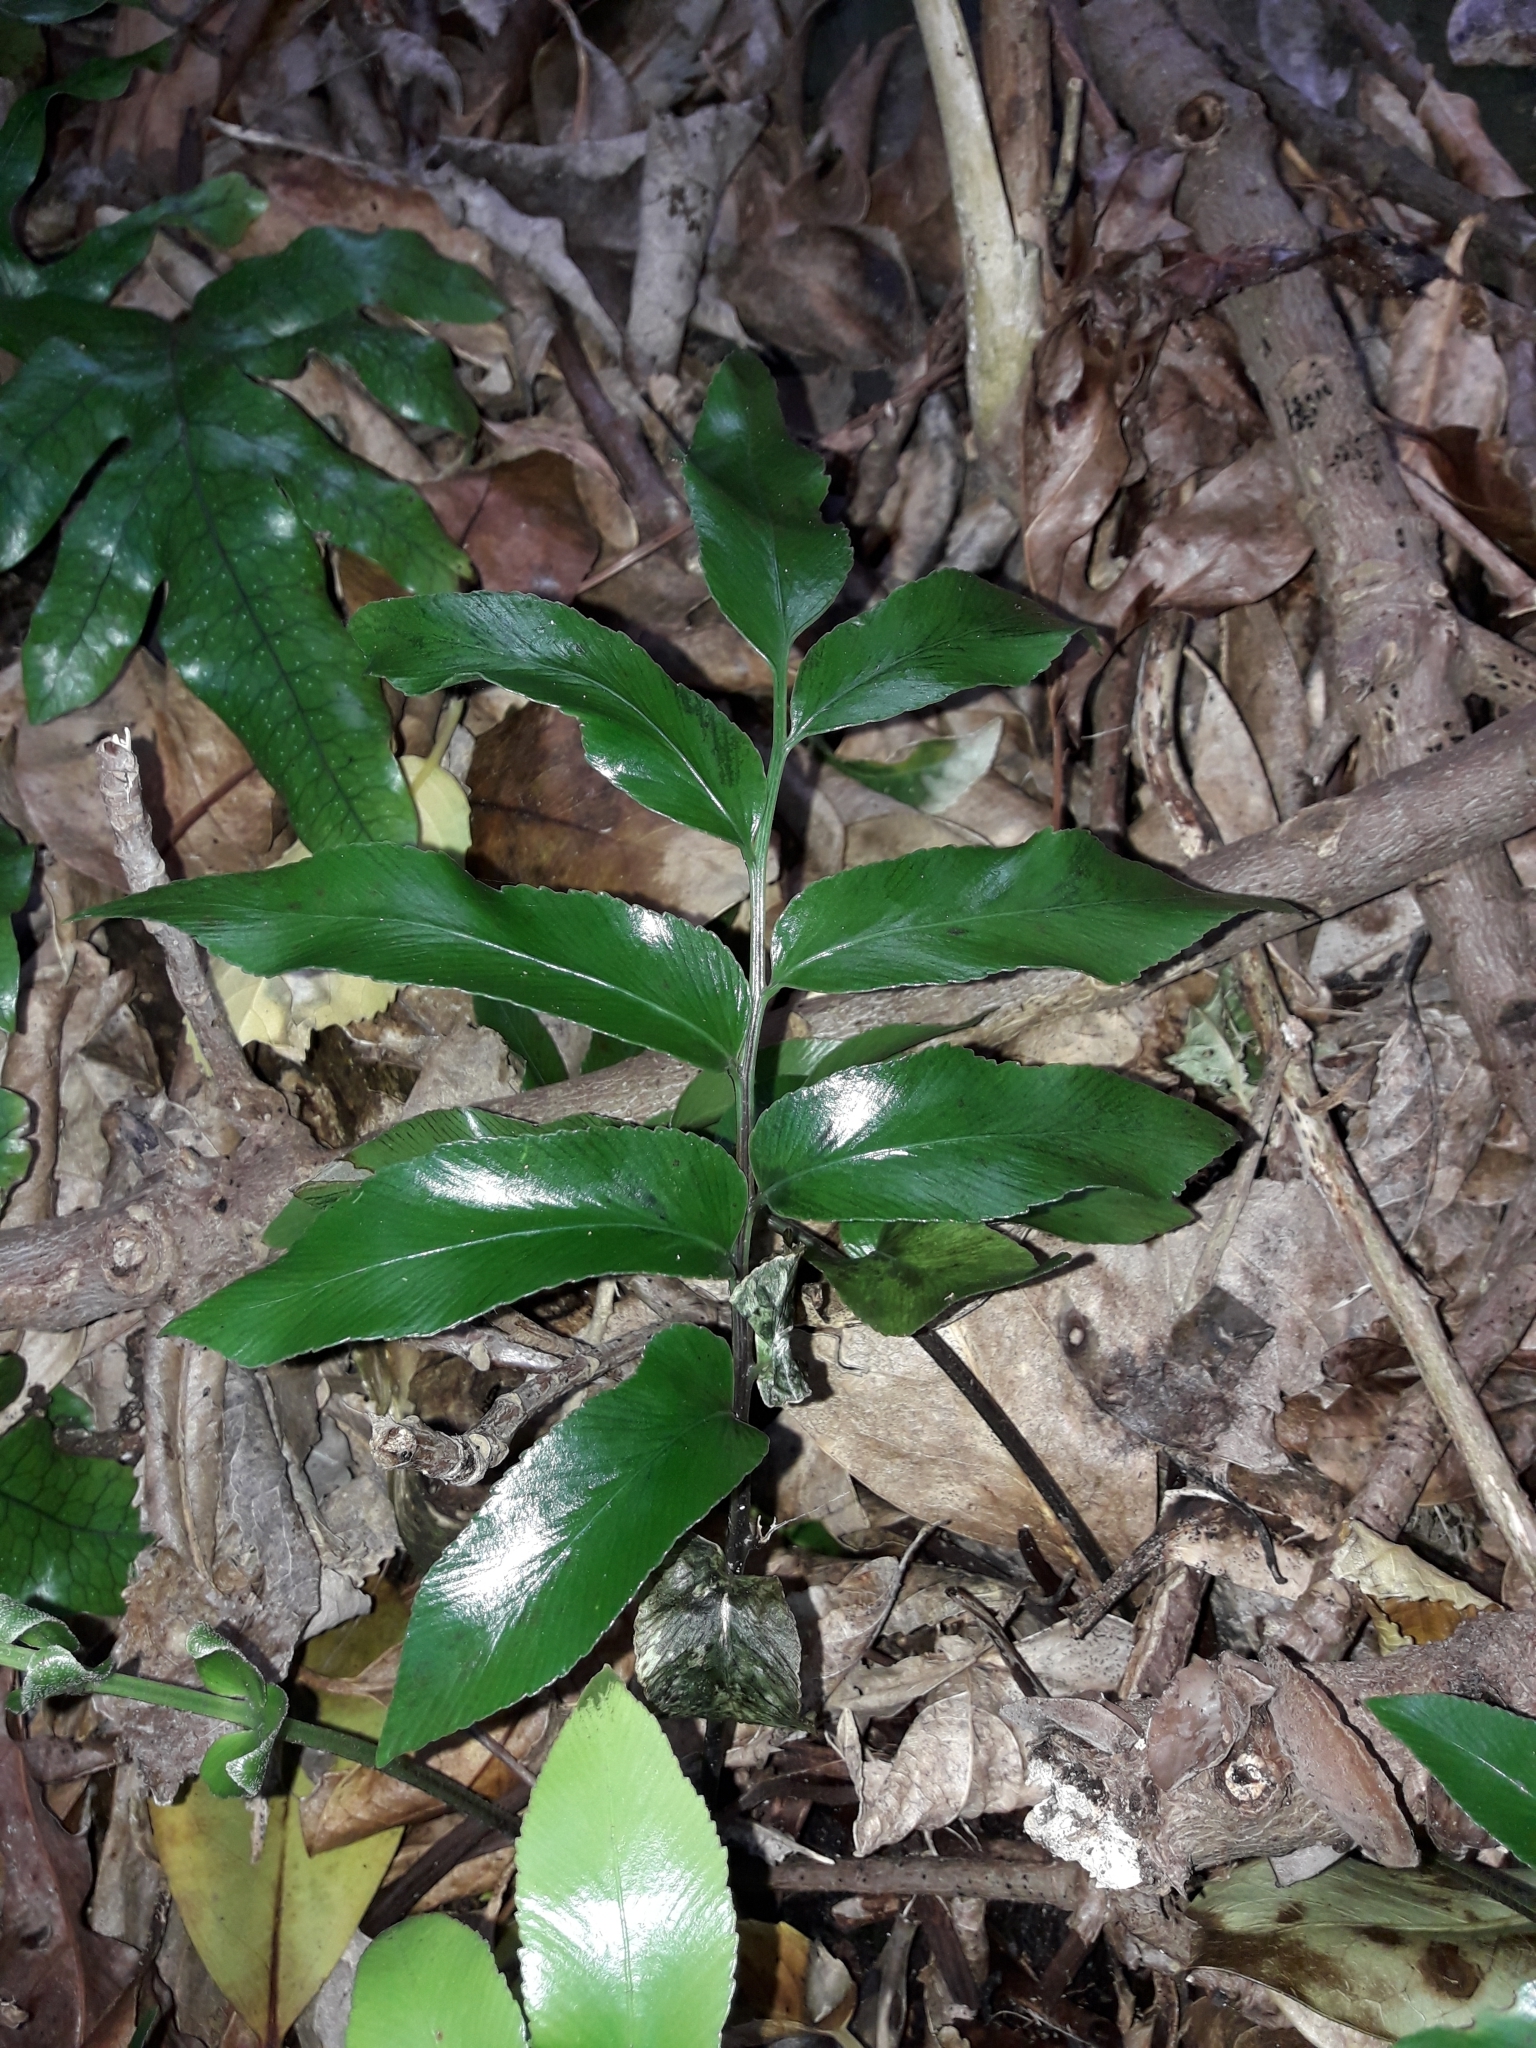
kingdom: Plantae
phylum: Tracheophyta
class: Polypodiopsida
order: Polypodiales
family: Aspleniaceae
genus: Asplenium
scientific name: Asplenium oblongifolium
